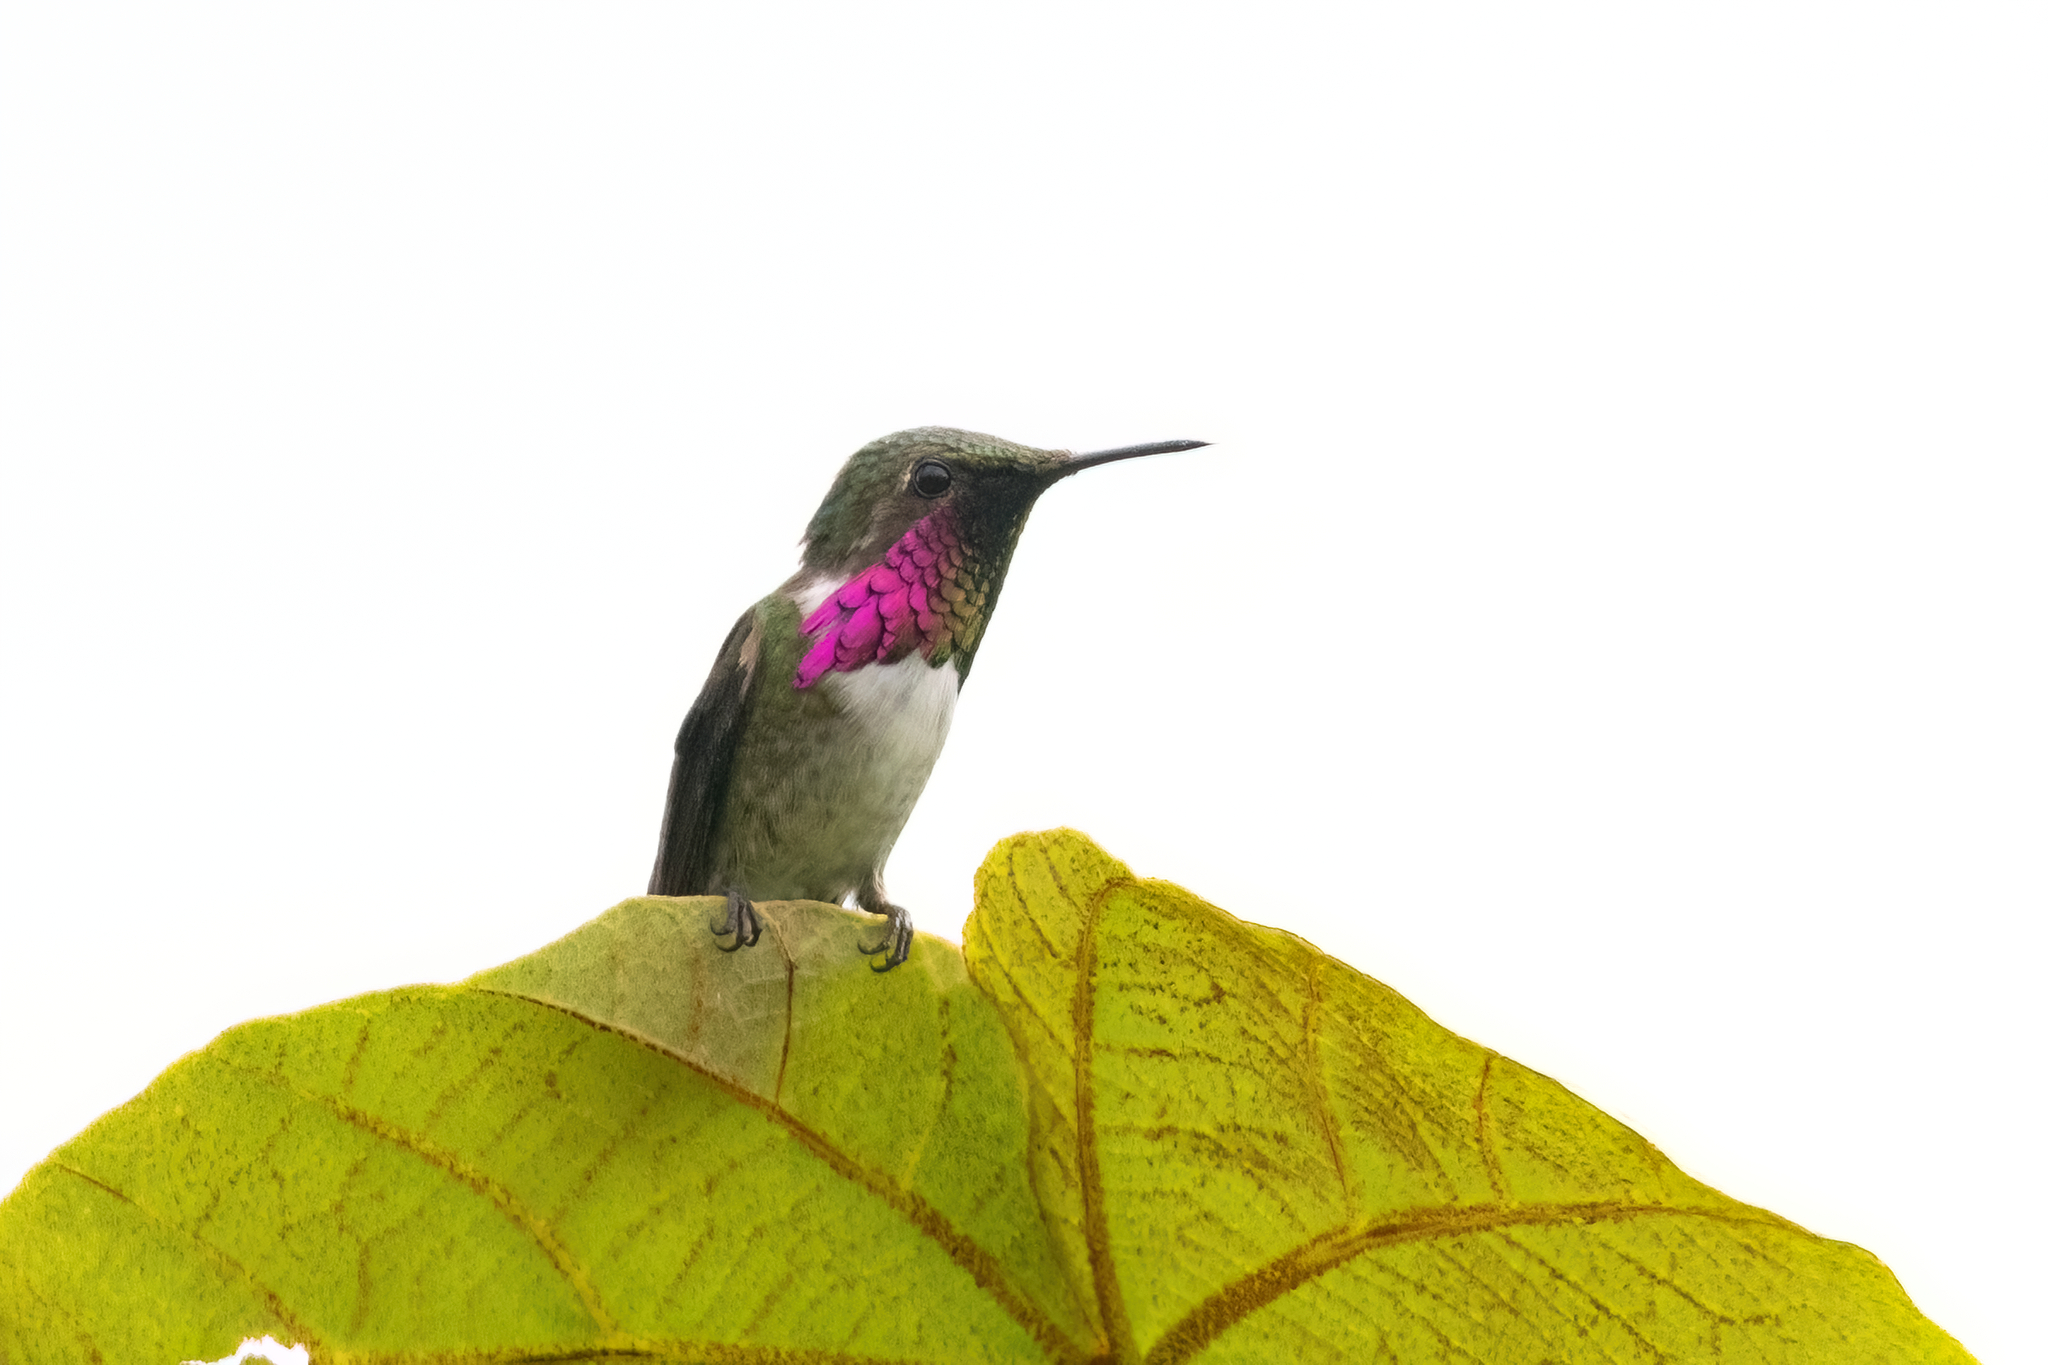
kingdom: Animalia
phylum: Chordata
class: Aves
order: Apodiformes
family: Trochilidae
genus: Selasphorus
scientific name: Selasphorus ellioti
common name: Wine-throated hummingbird
